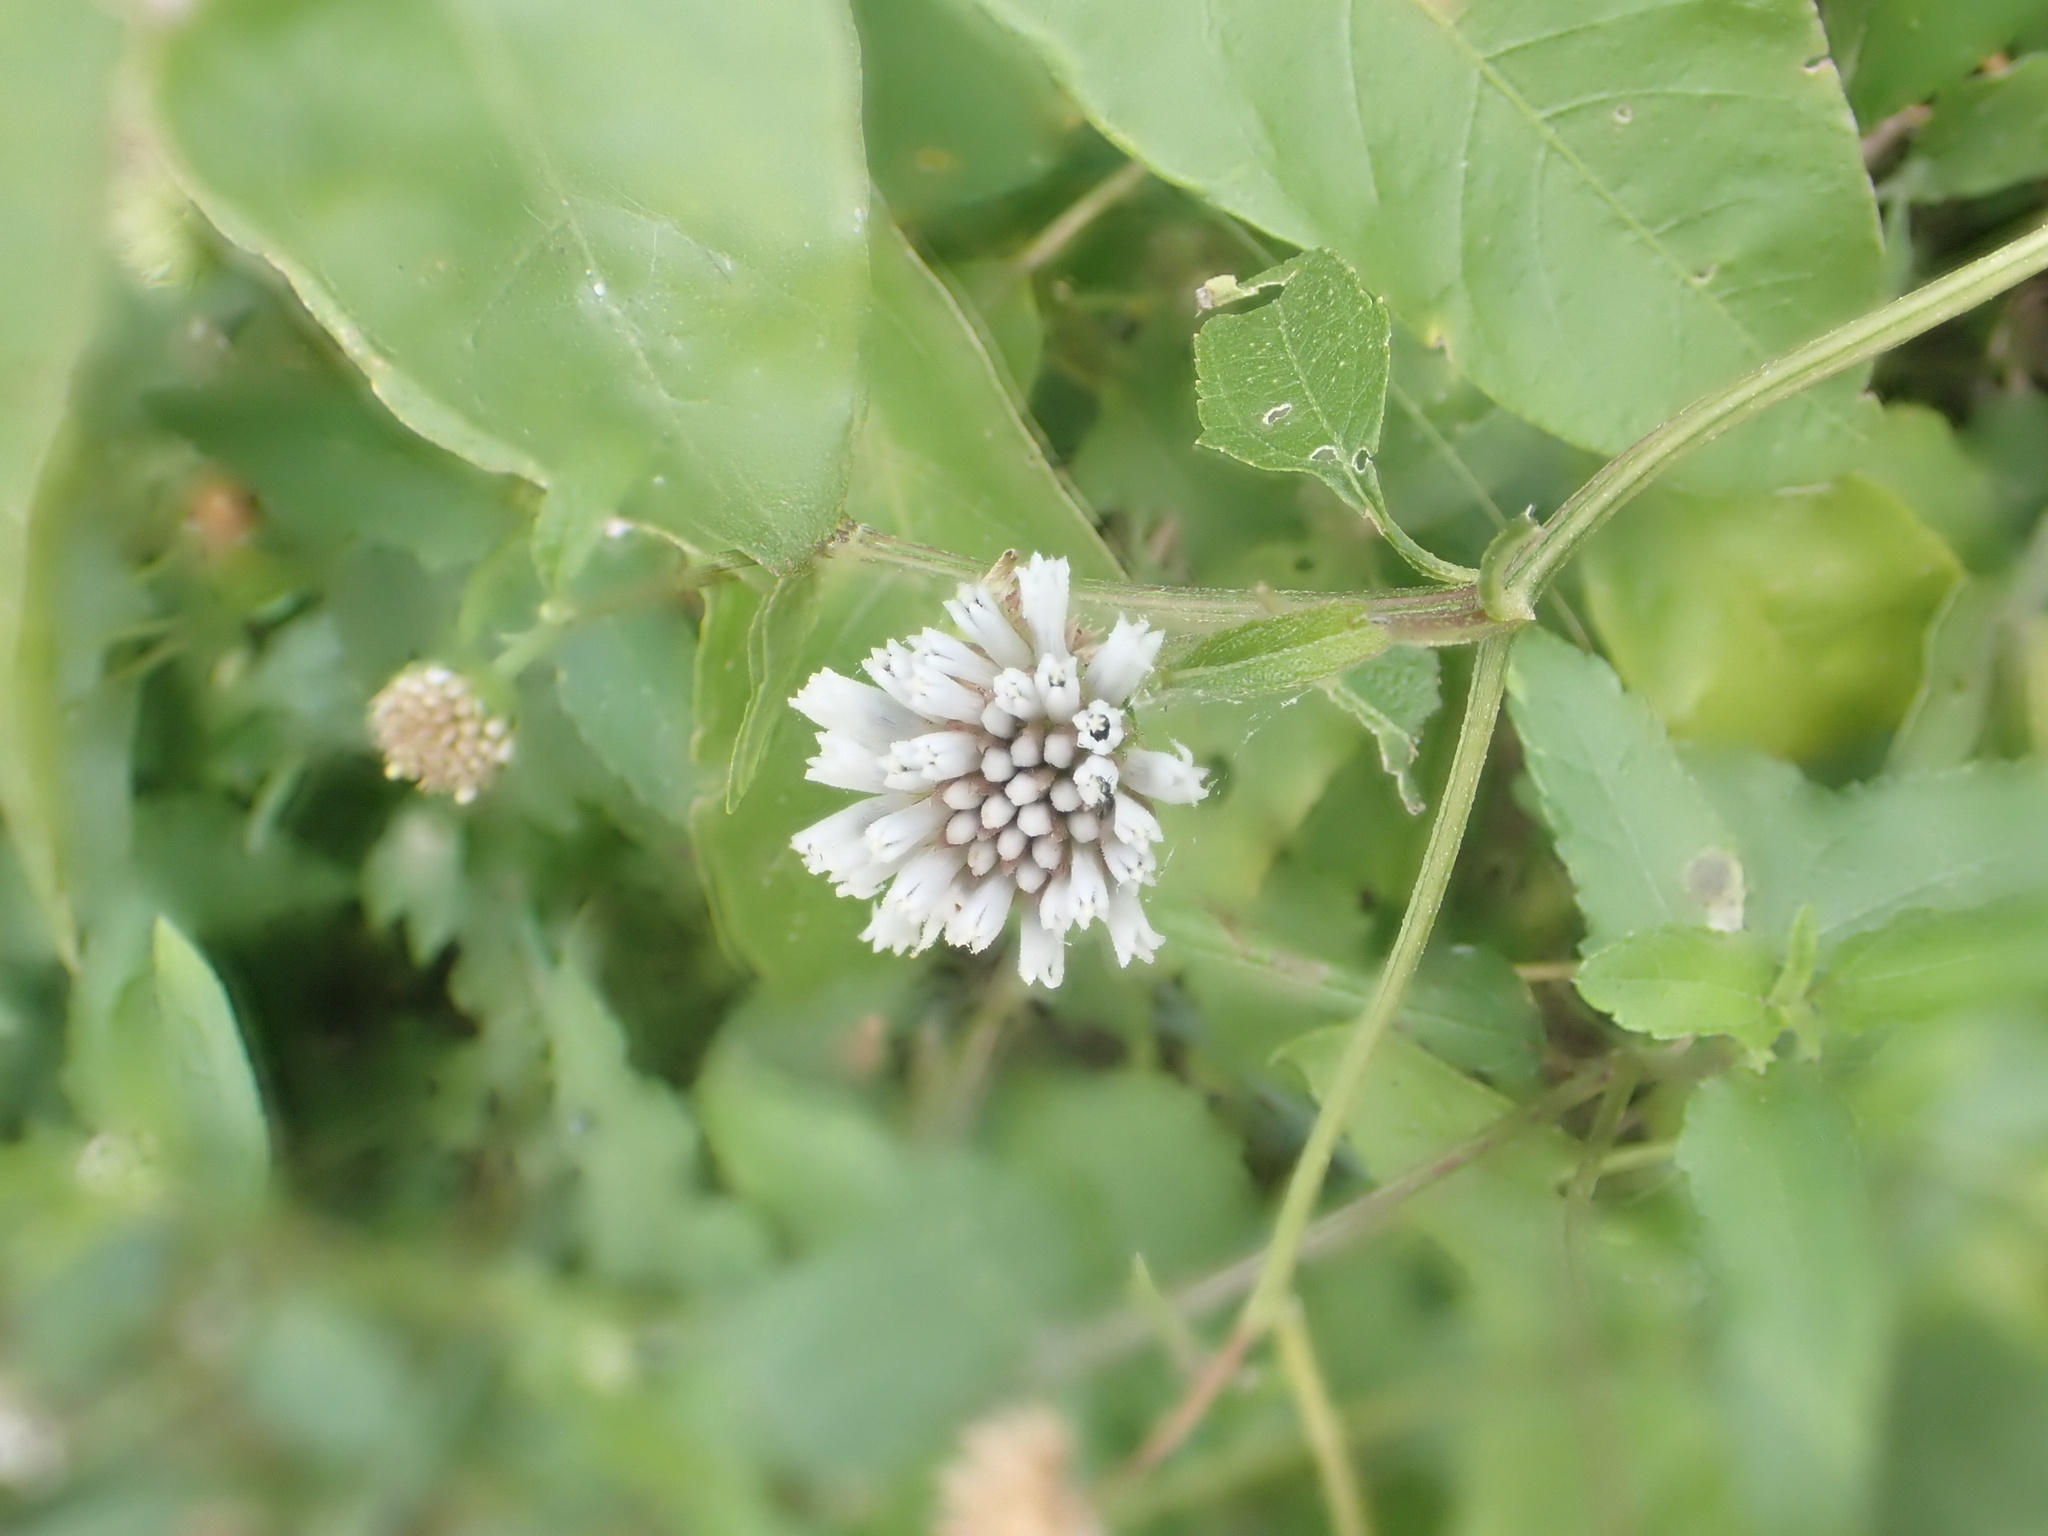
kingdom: Plantae
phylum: Tracheophyta
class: Magnoliopsida
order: Asterales
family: Asteraceae
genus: Melanthera
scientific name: Melanthera nivea
